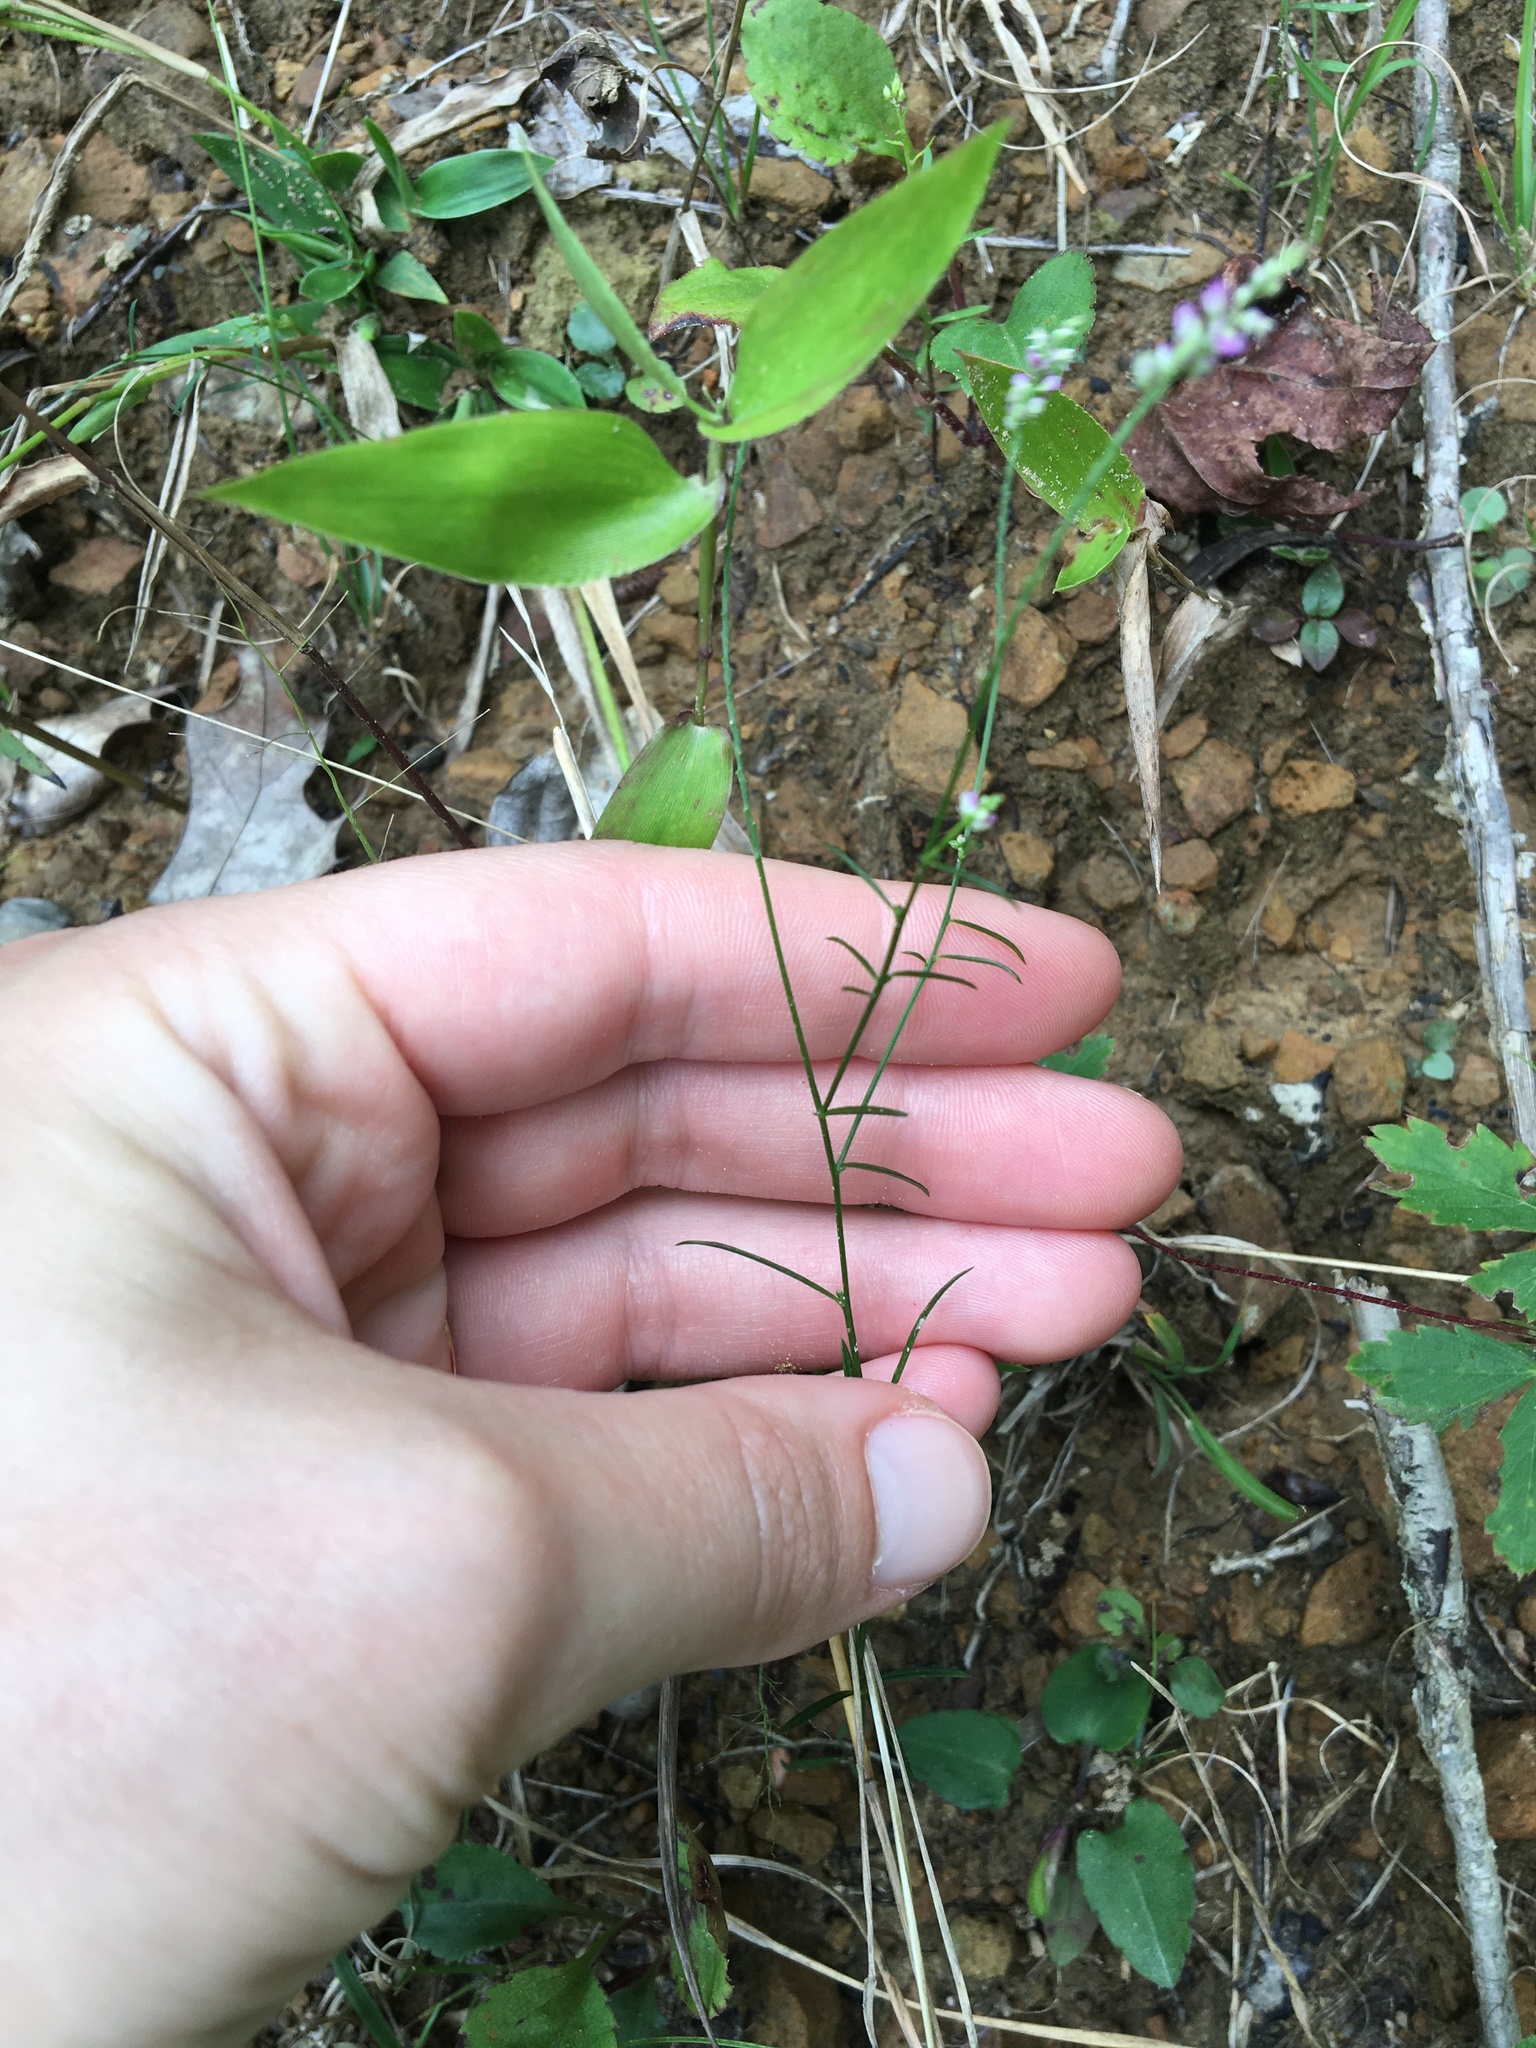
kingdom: Plantae
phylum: Tracheophyta
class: Magnoliopsida
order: Fabales
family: Polygalaceae
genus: Polygala
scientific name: Polygala verticillata
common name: Whorl milkwort
